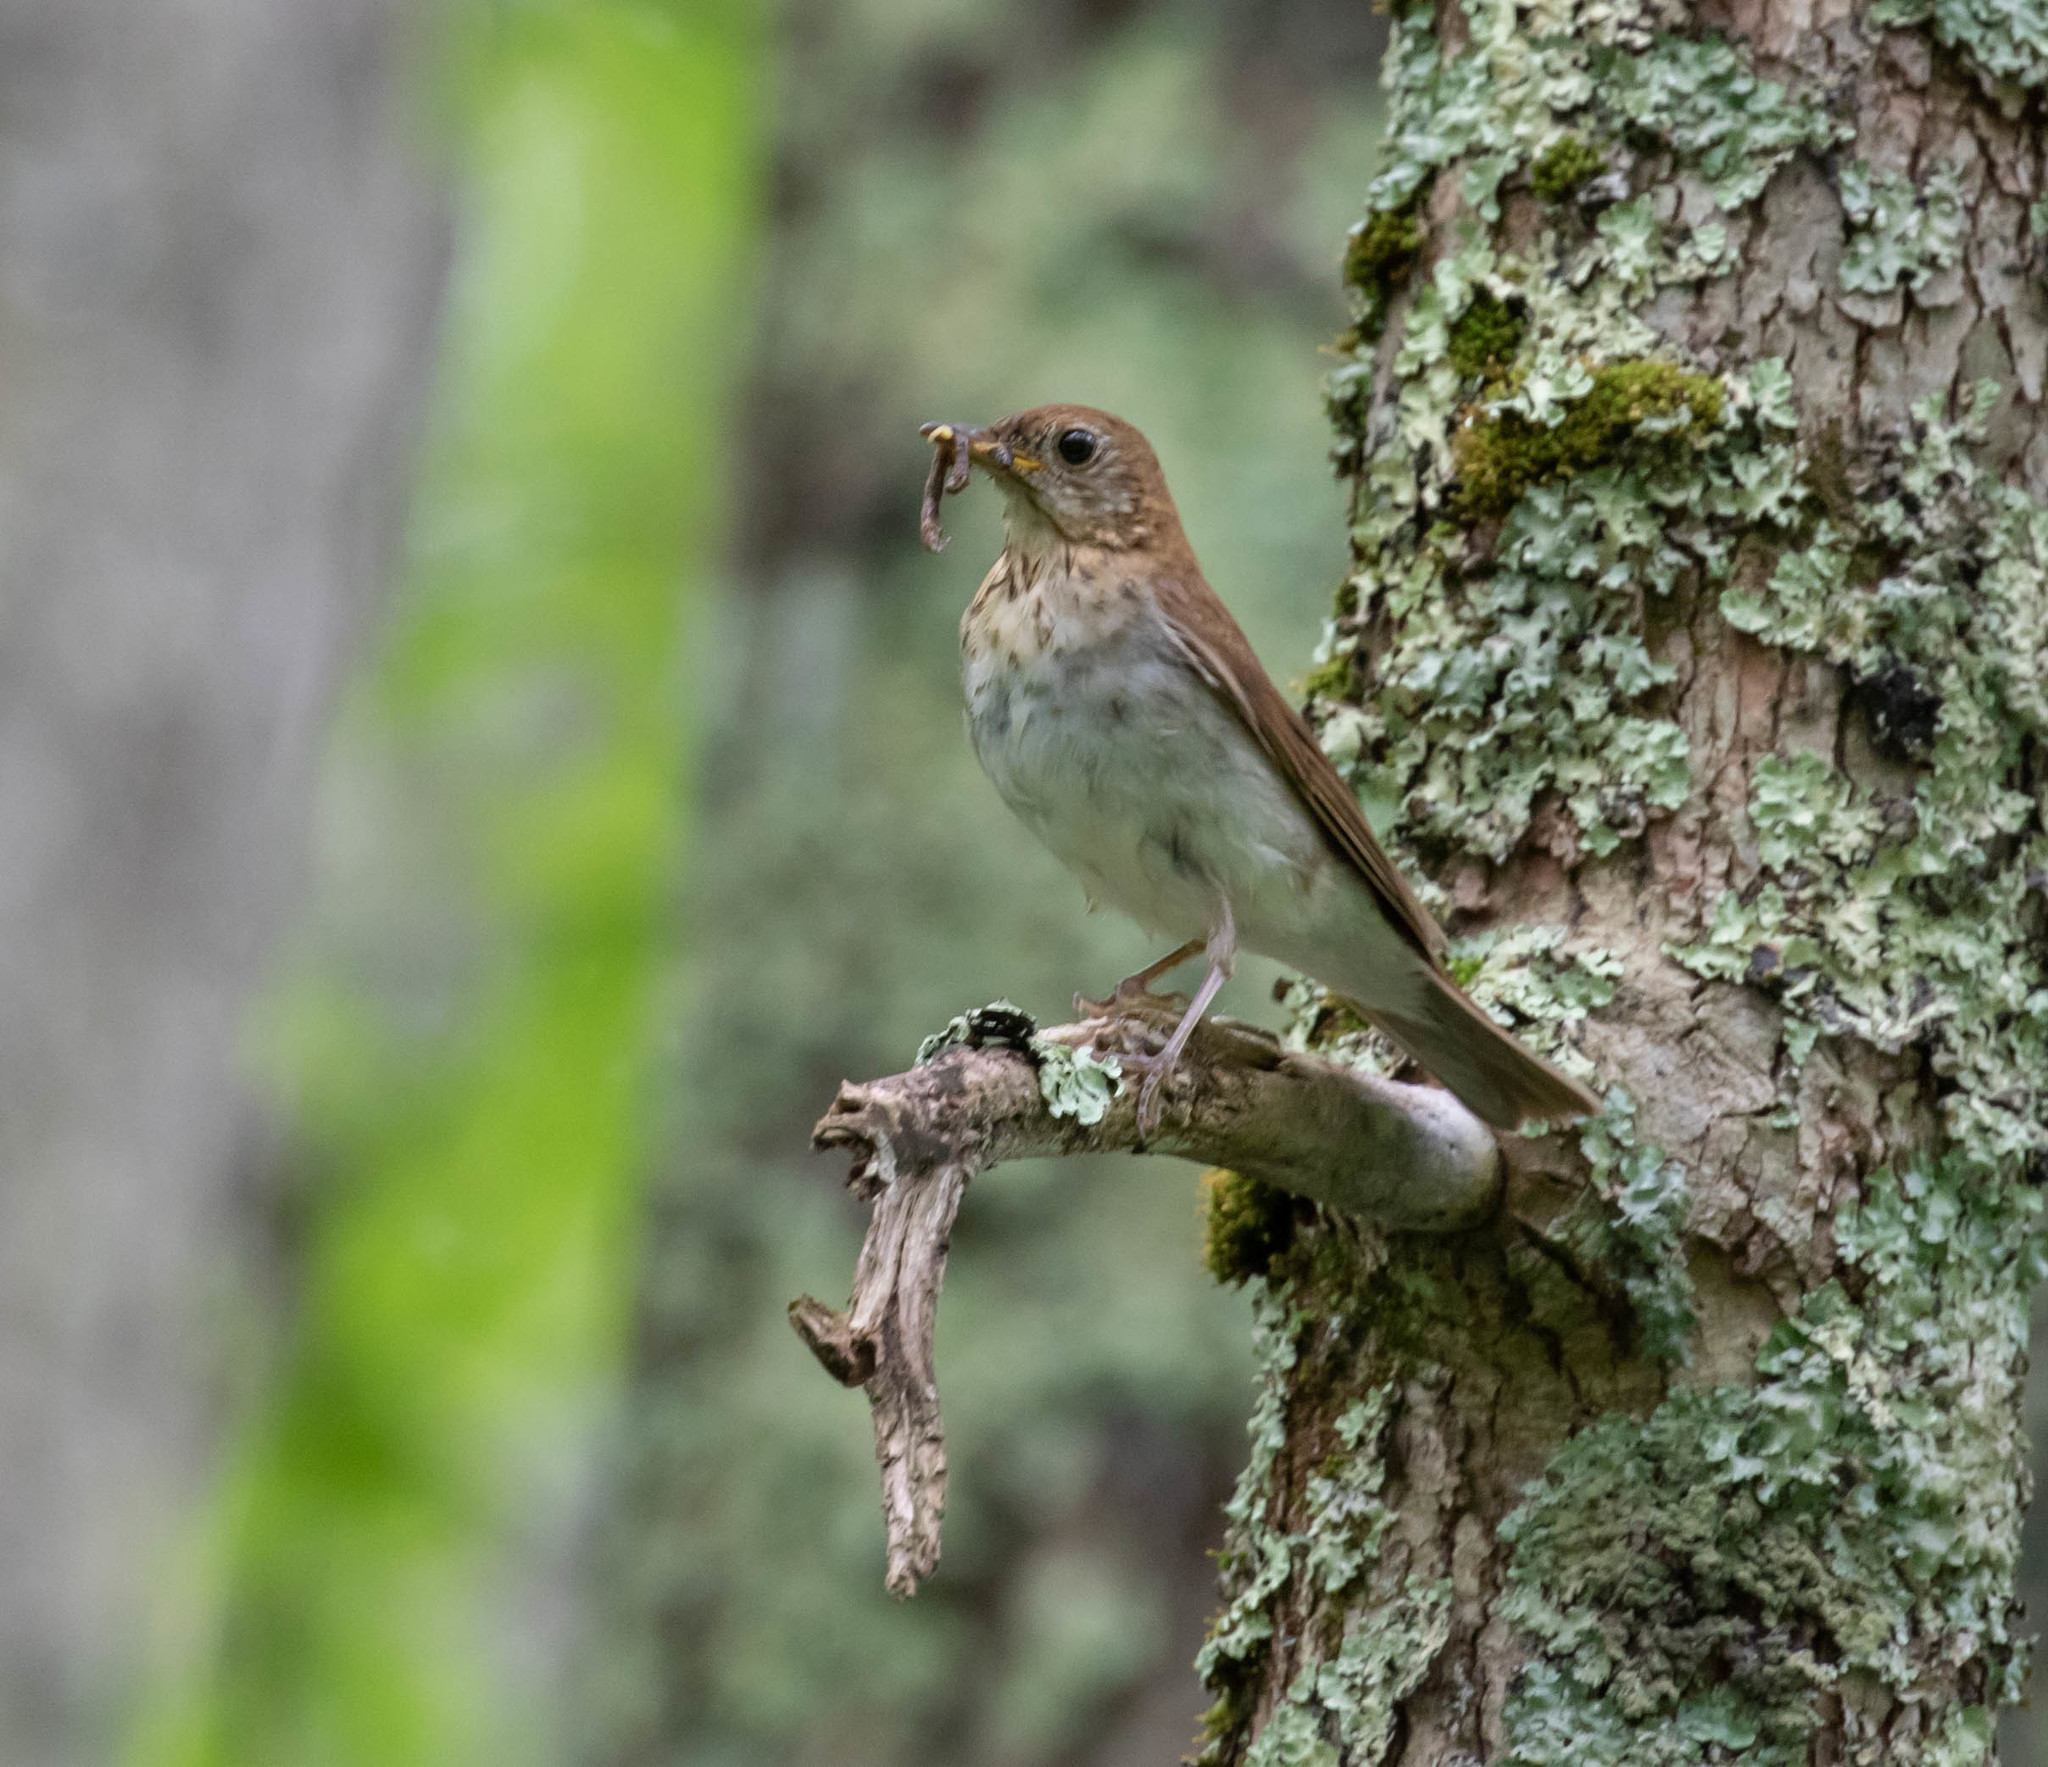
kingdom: Animalia
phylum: Chordata
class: Aves
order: Passeriformes
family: Turdidae
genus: Catharus
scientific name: Catharus fuscescens
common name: Veery
